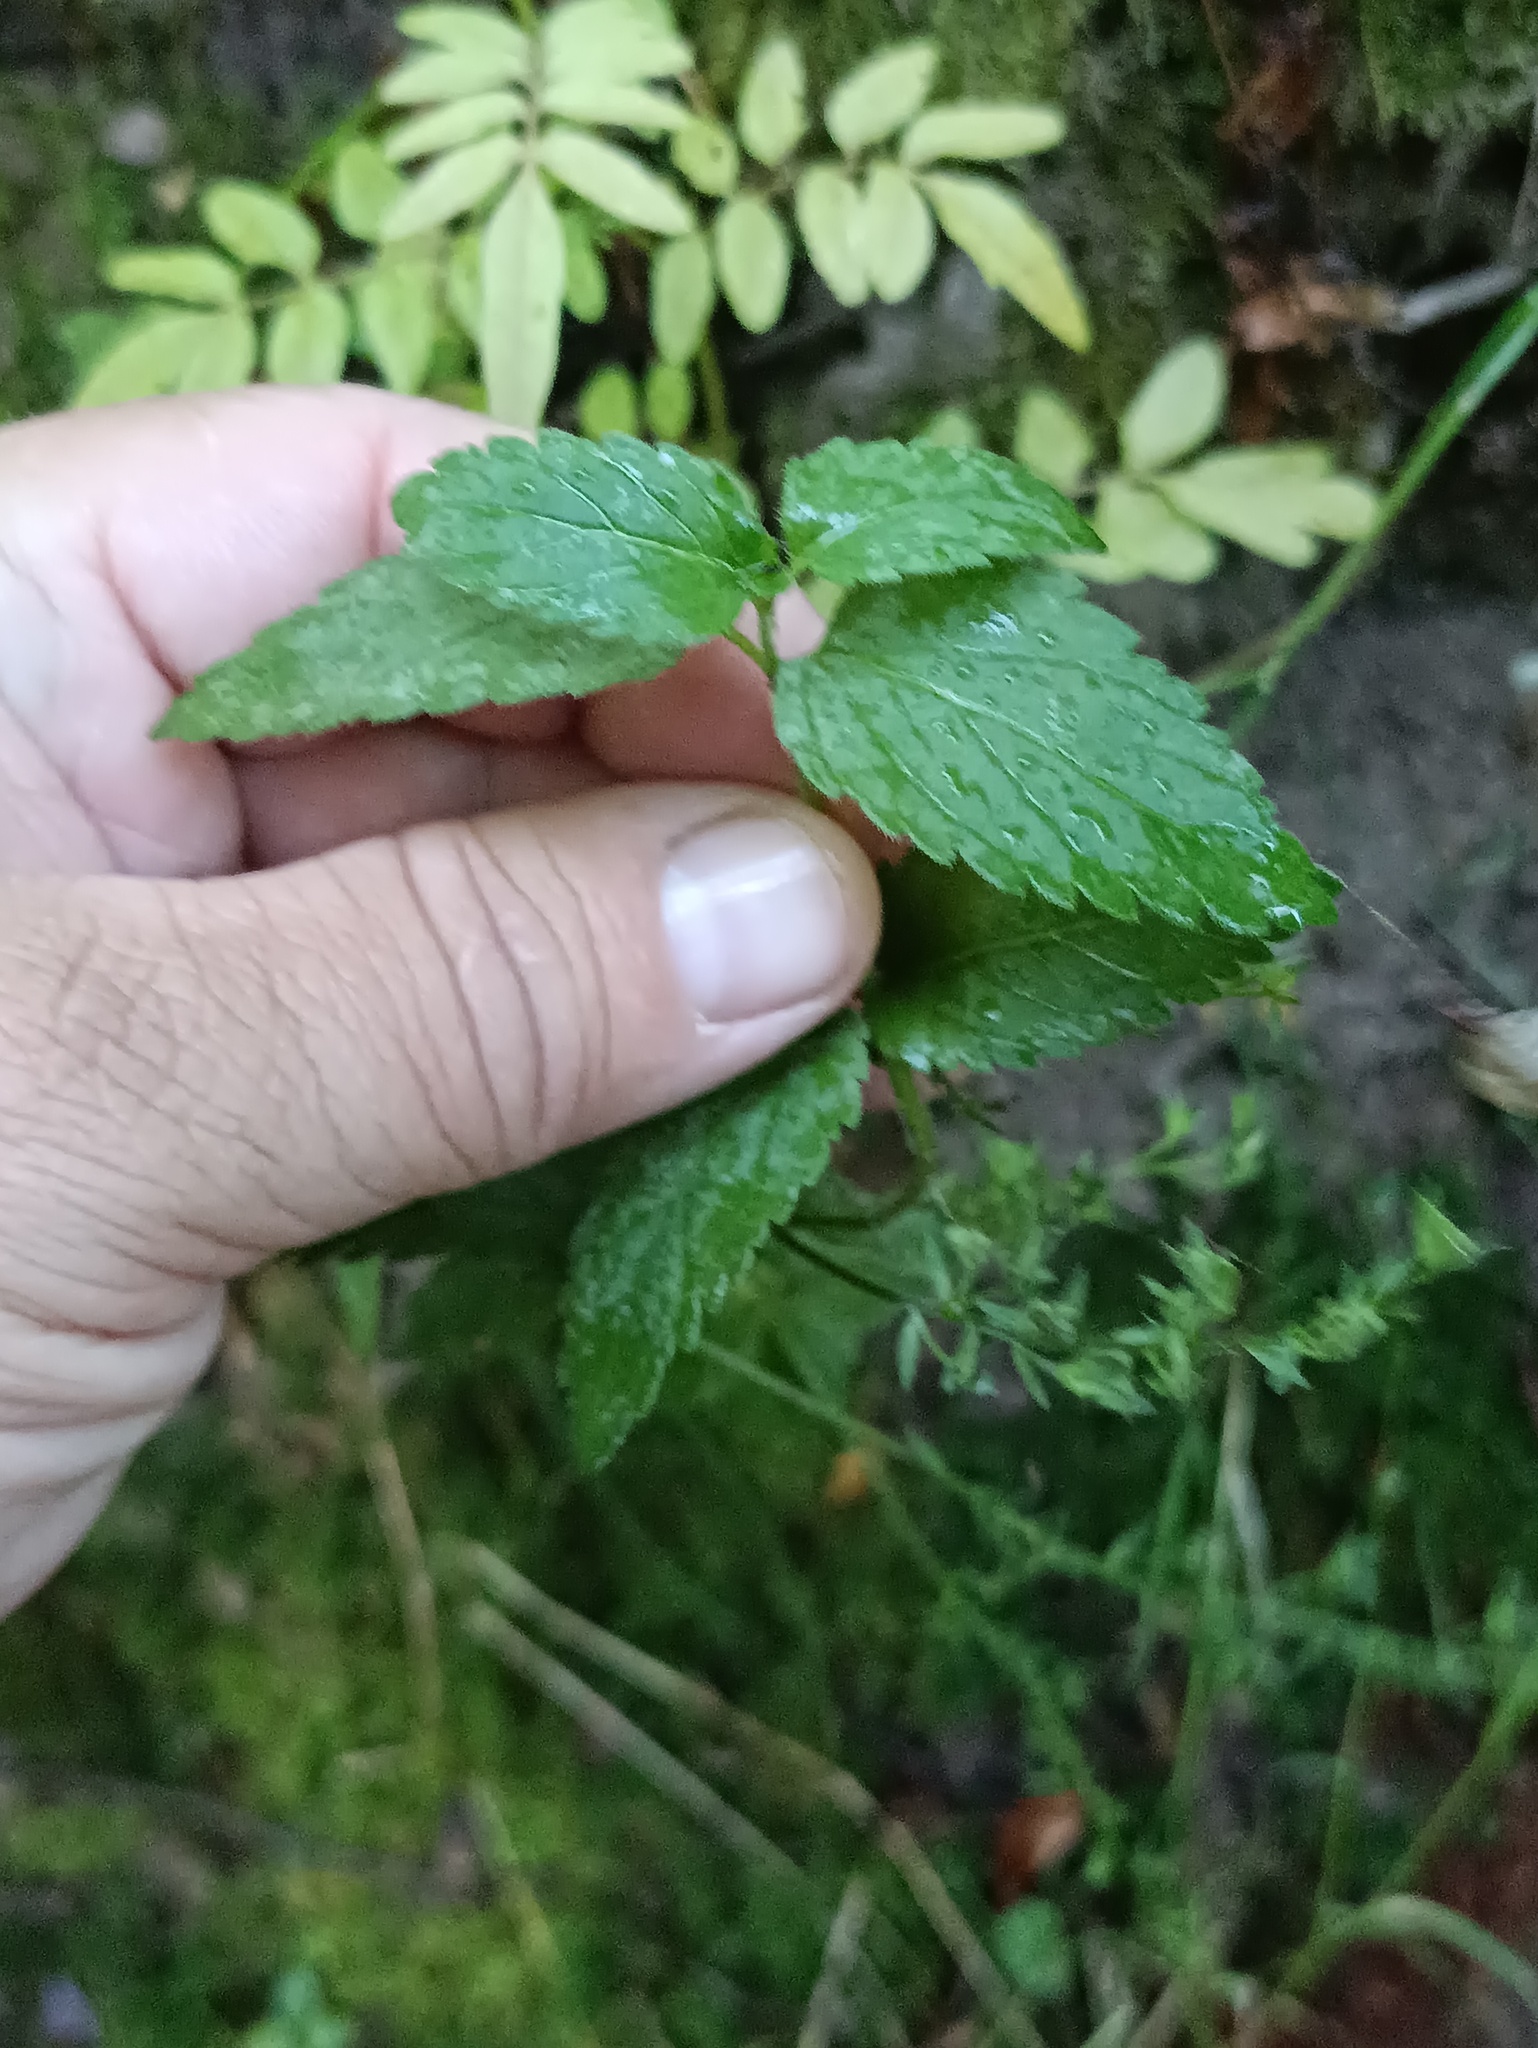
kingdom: Plantae
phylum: Tracheophyta
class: Magnoliopsida
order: Lamiales
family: Plantaginaceae
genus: Veronica
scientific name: Veronica chamaedrys
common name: Germander speedwell
